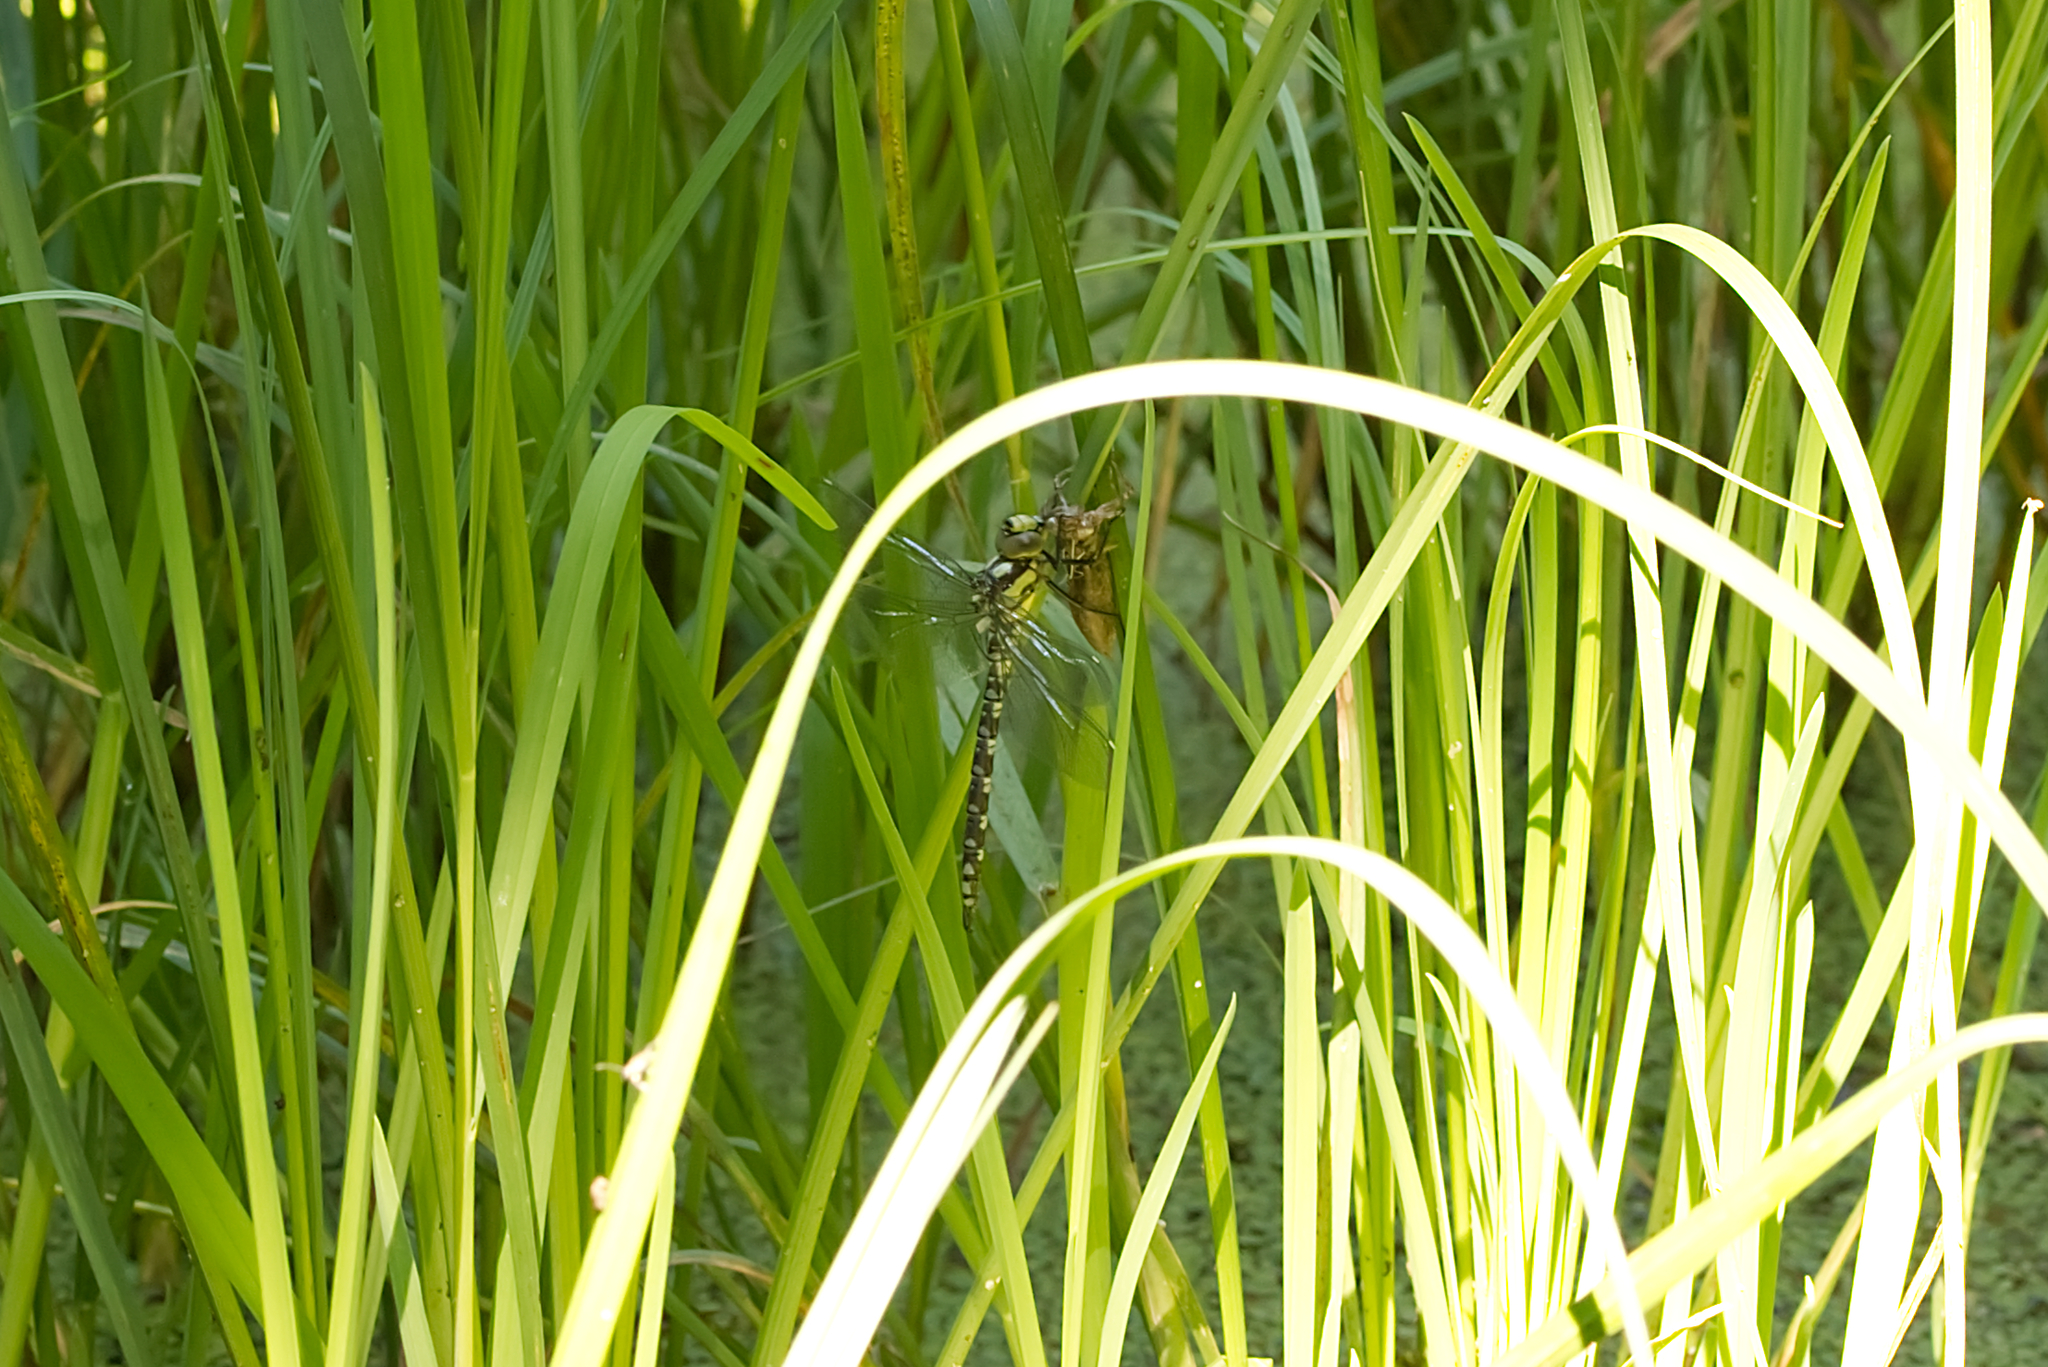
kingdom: Animalia
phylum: Arthropoda
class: Insecta
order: Odonata
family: Aeshnidae
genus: Aeshna
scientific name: Aeshna cyanea
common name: Southern hawker
